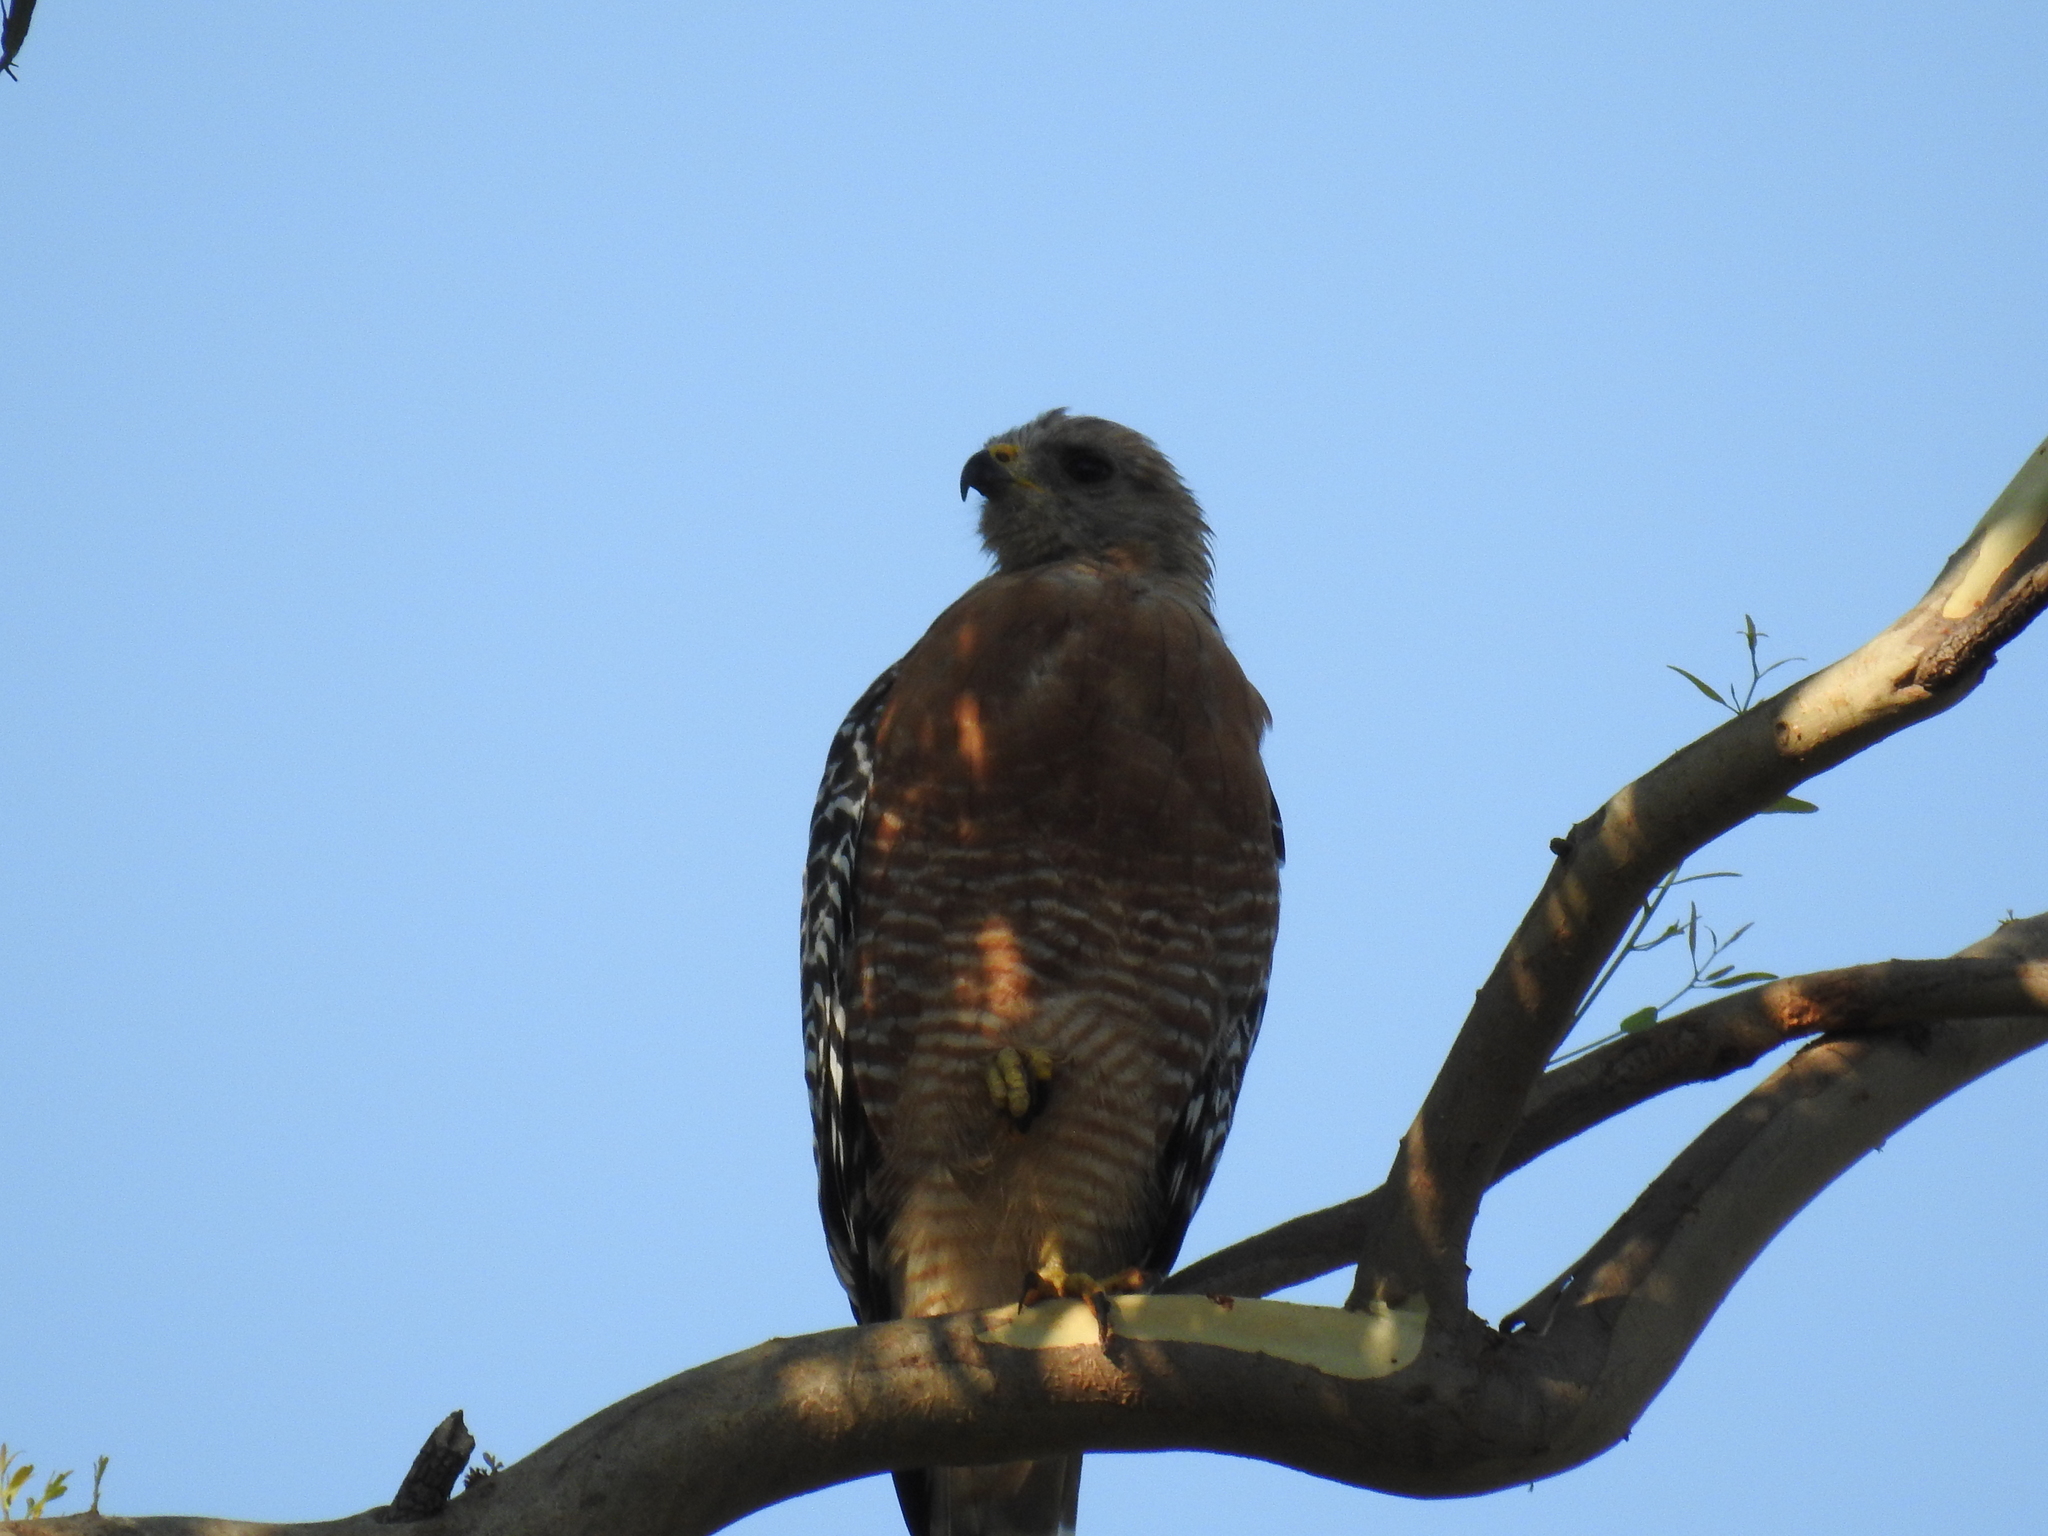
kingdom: Animalia
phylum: Chordata
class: Aves
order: Accipitriformes
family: Accipitridae
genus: Buteo
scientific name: Buteo lineatus
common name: Red-shouldered hawk
